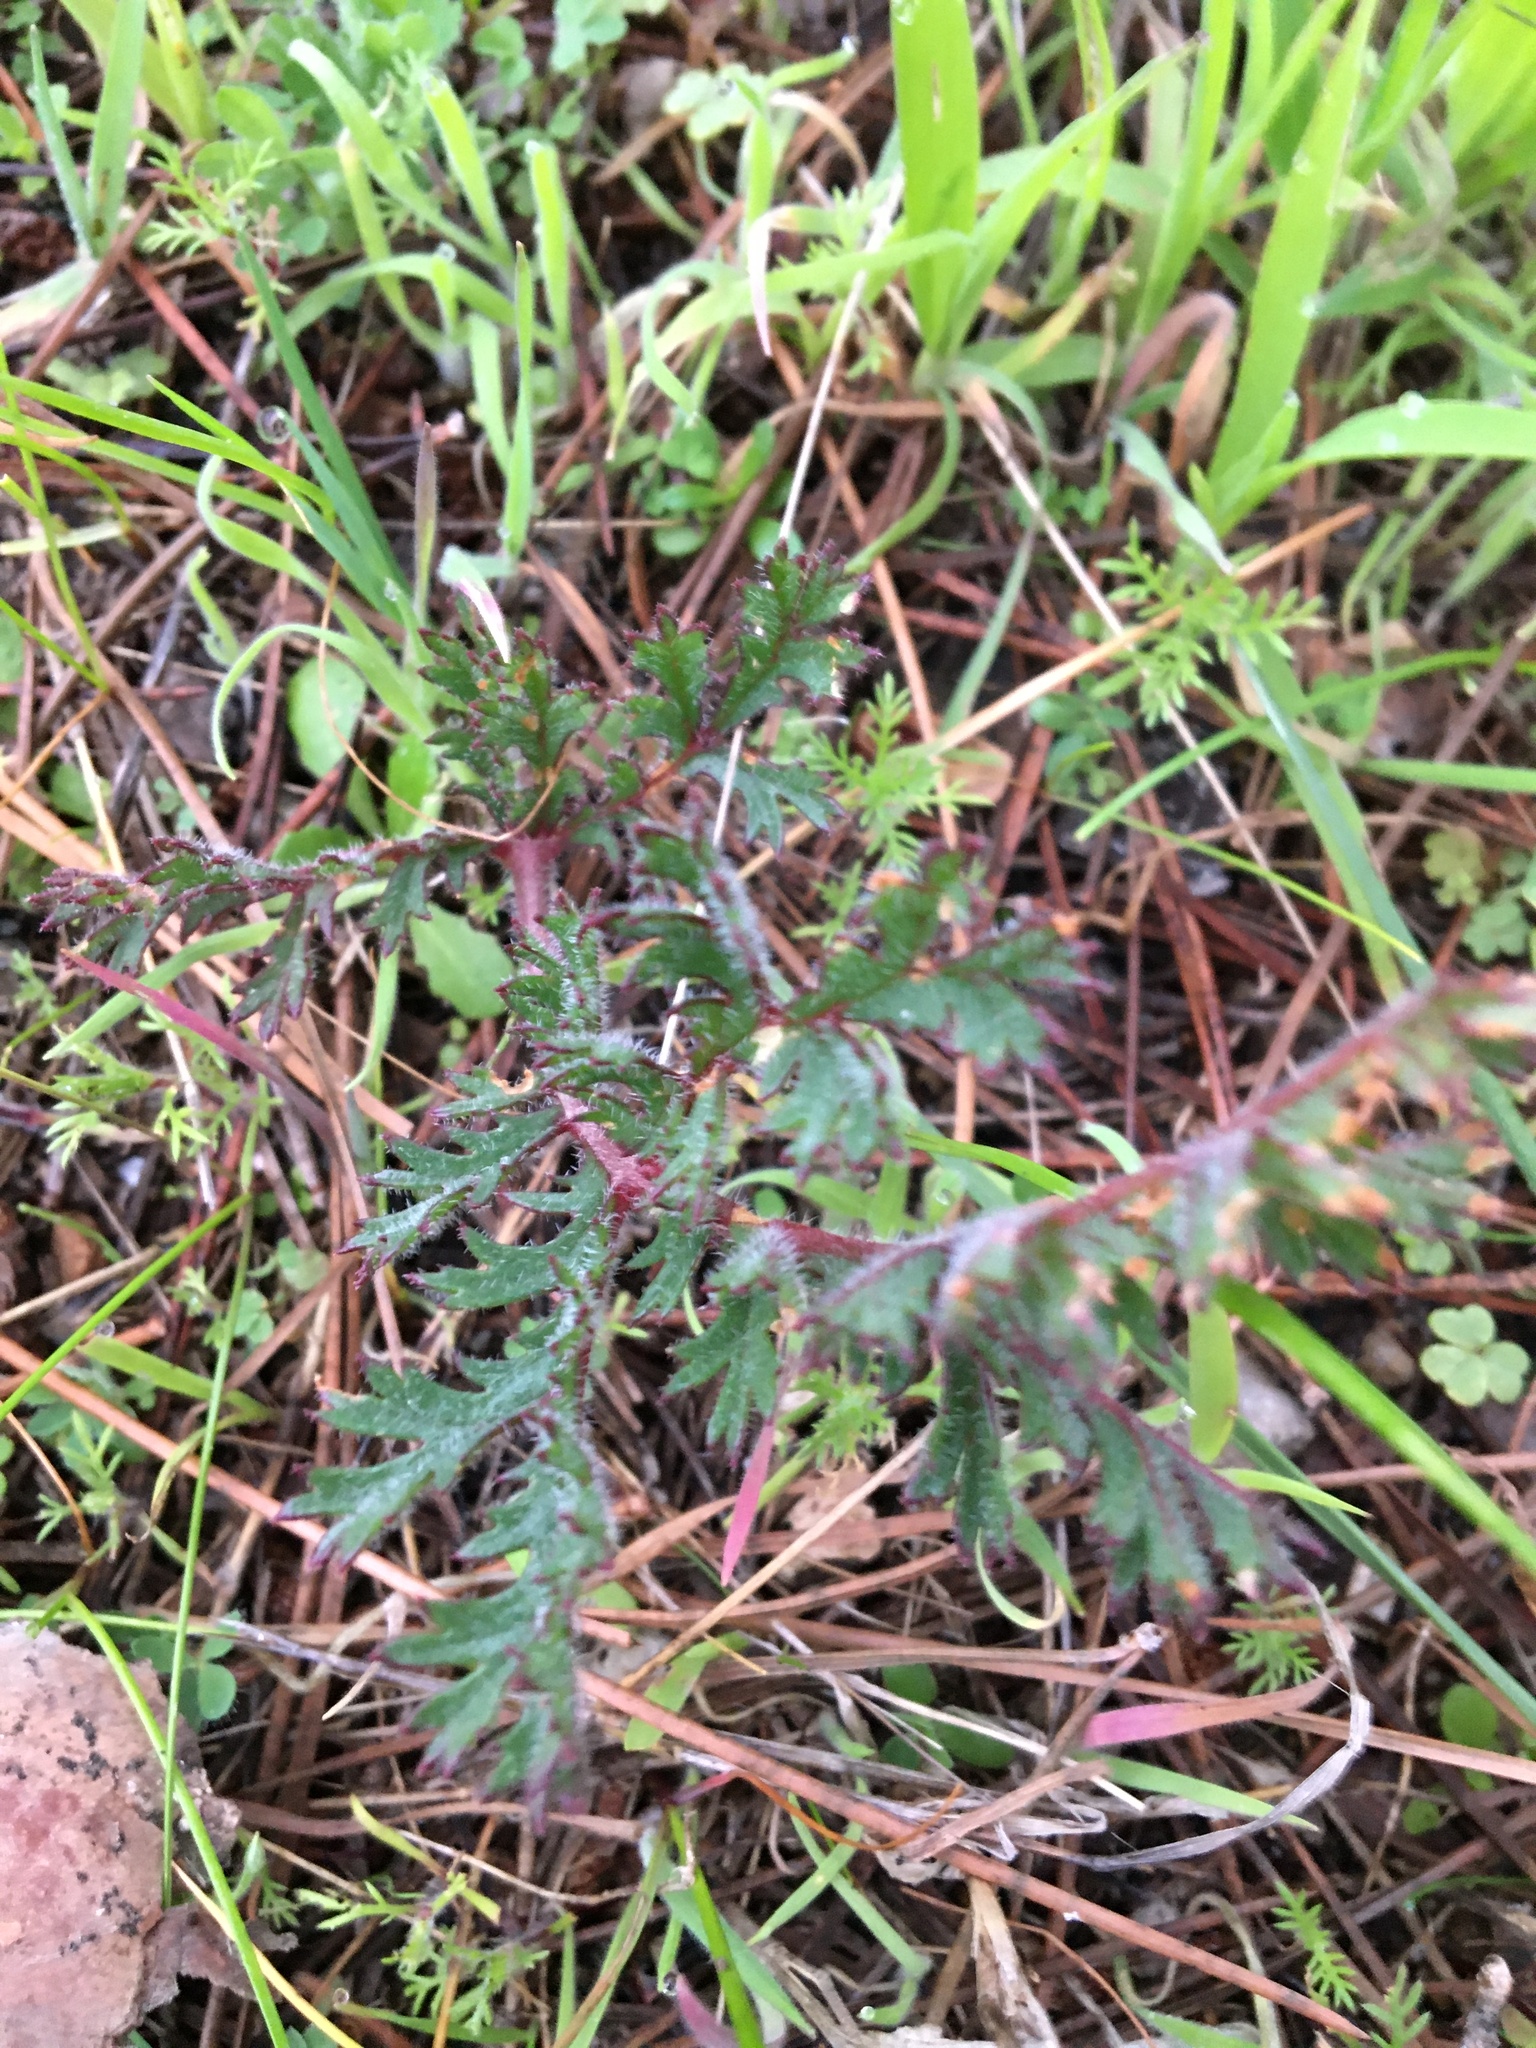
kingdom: Plantae
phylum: Tracheophyta
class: Magnoliopsida
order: Geraniales
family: Geraniaceae
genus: Pelargonium
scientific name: Pelargonium triste
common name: Night-scent pelargonium
